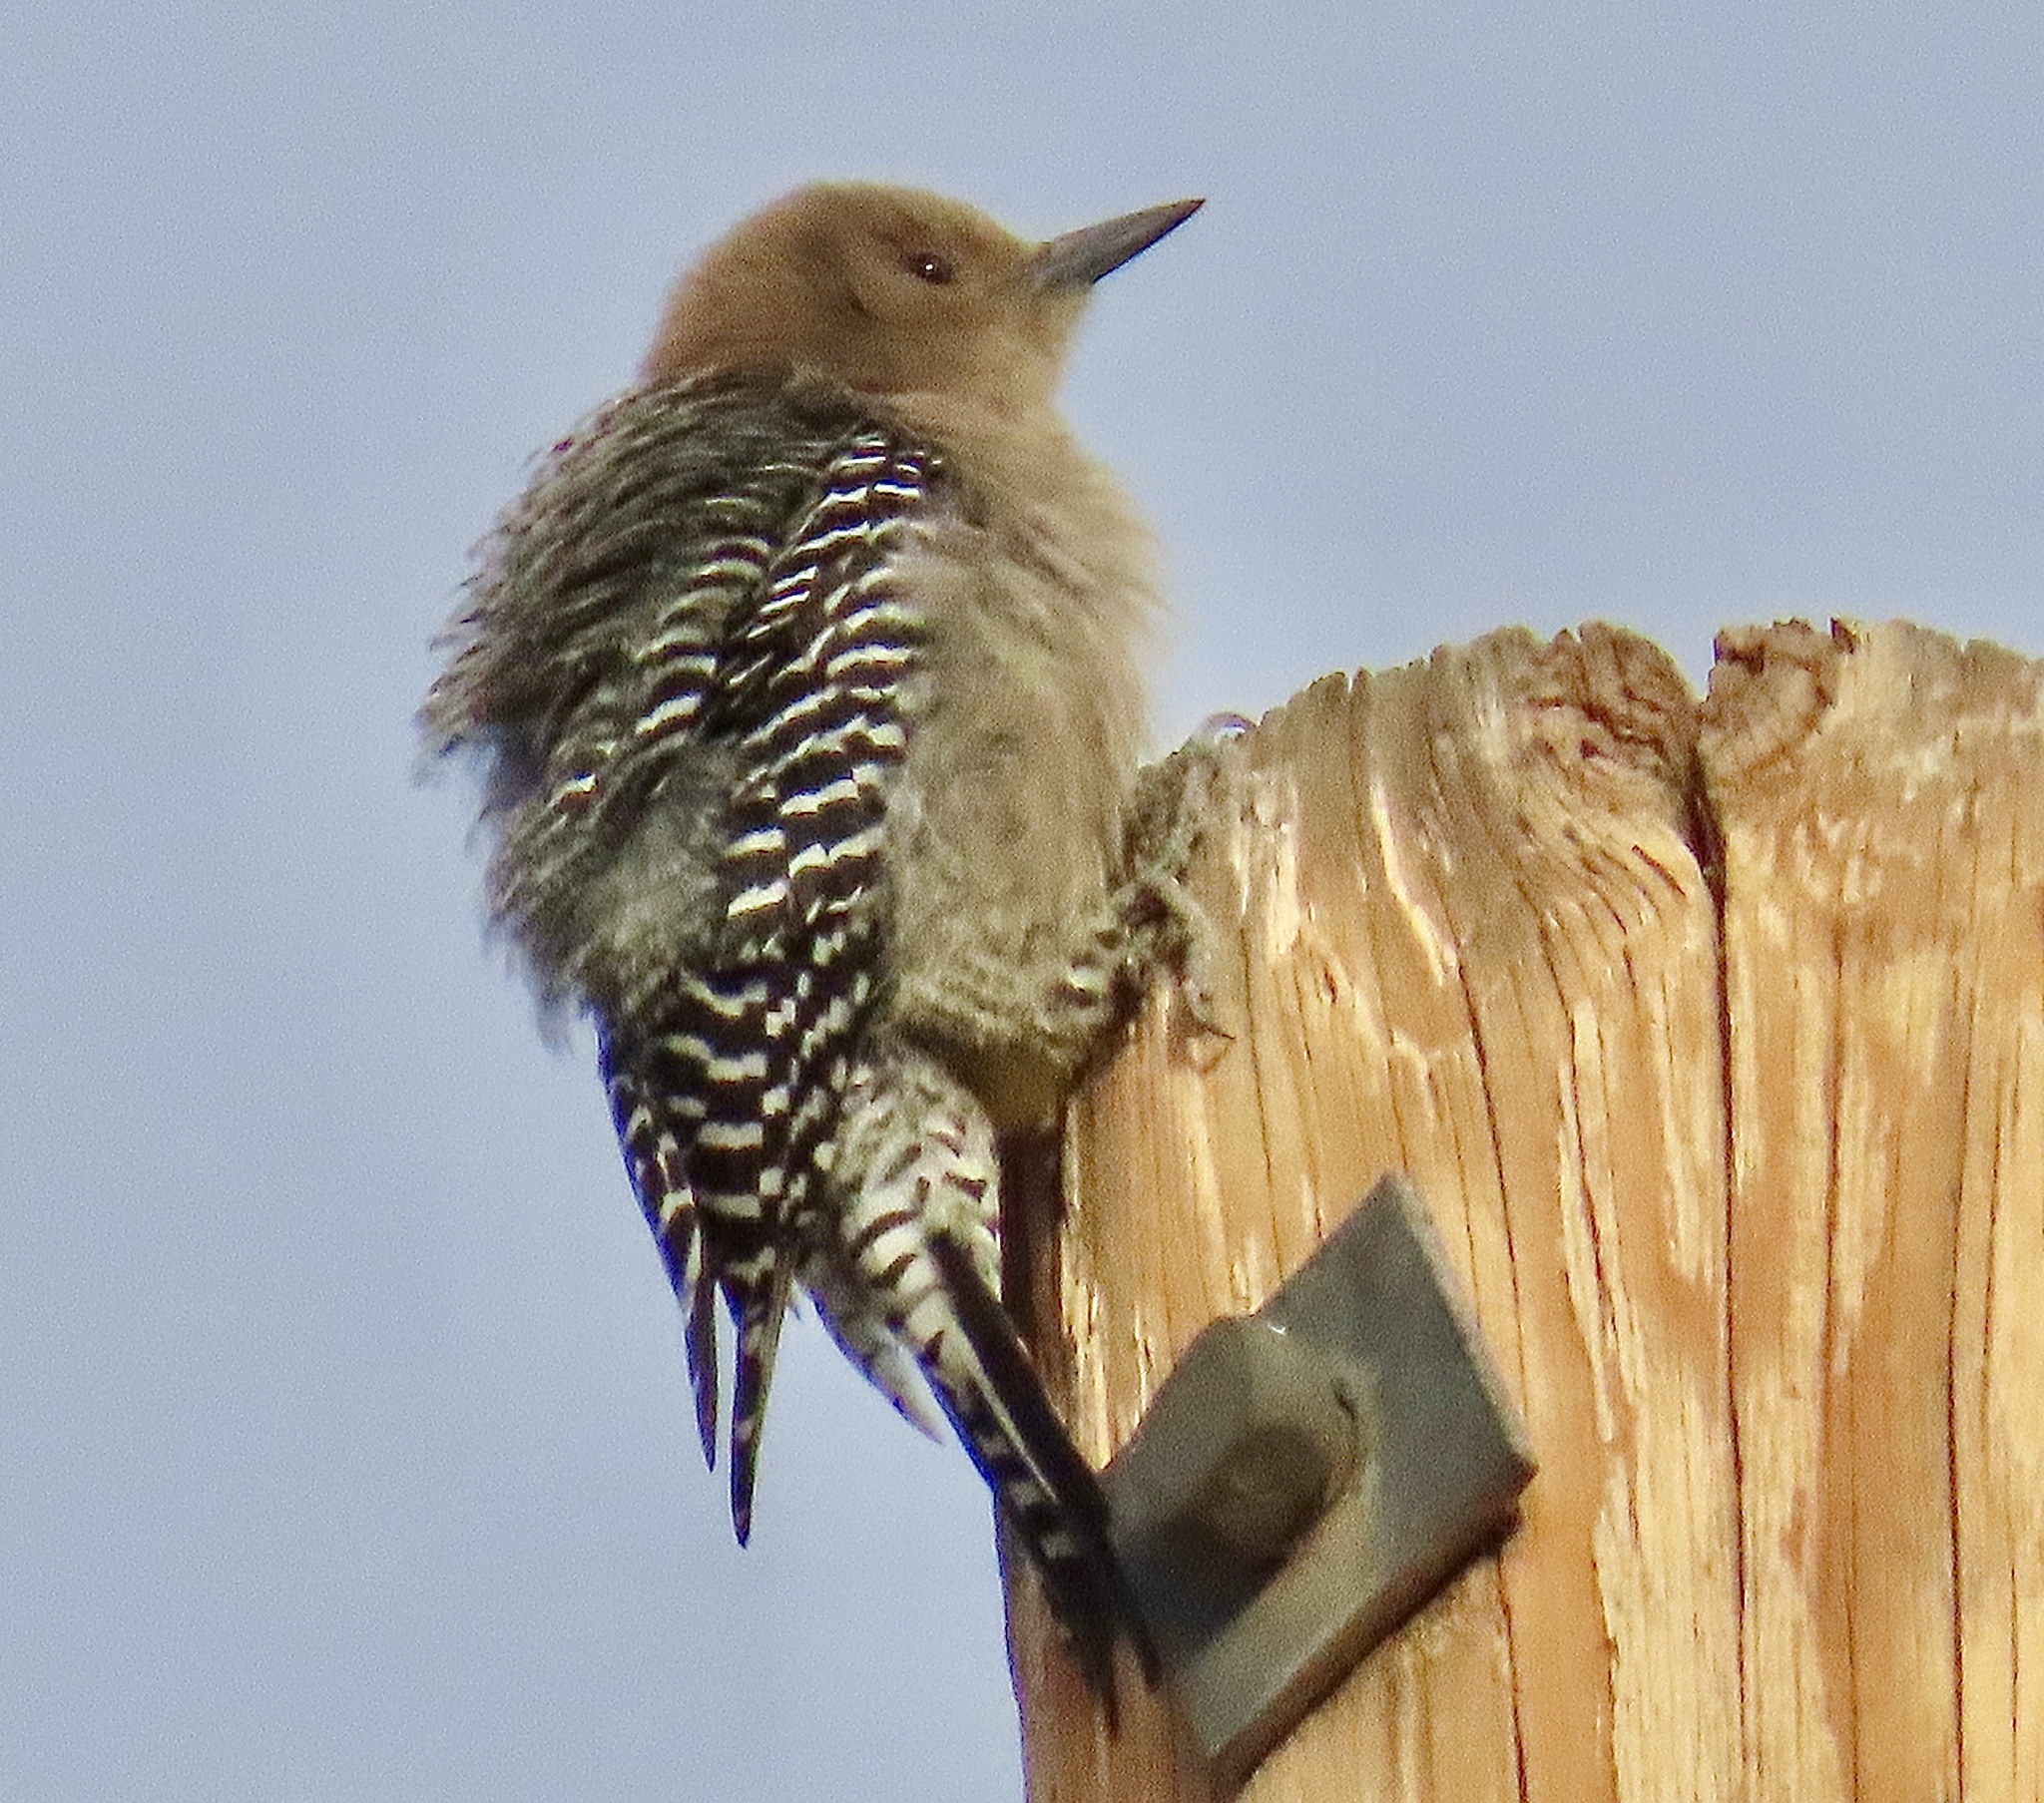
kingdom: Animalia
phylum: Chordata
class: Aves
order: Piciformes
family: Picidae
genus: Melanerpes
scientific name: Melanerpes uropygialis
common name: Gila woodpecker
